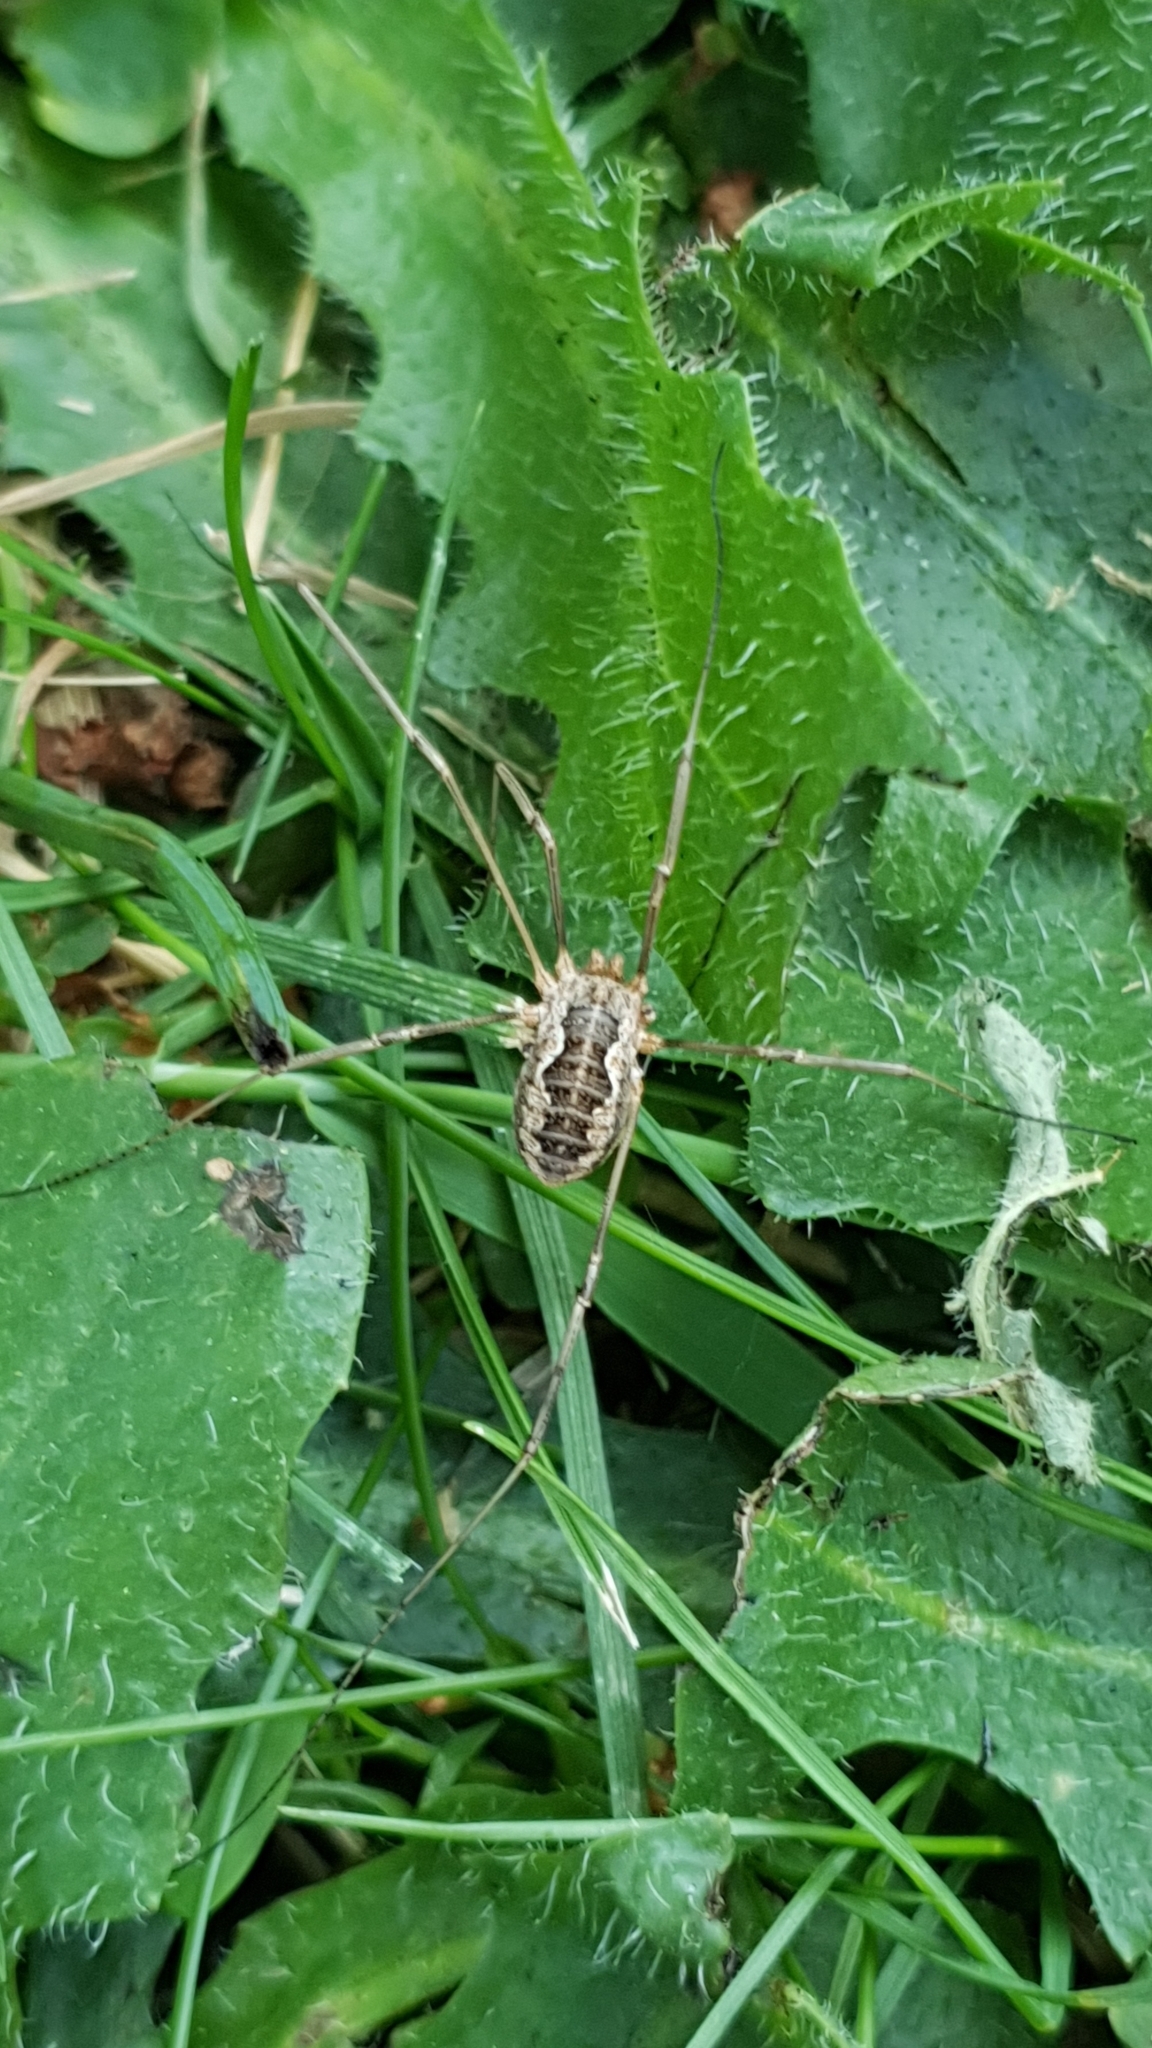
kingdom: Animalia
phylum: Arthropoda
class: Arachnida
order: Opiliones
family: Phalangiidae
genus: Phalangium
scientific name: Phalangium opilio
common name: Daddy longleg
